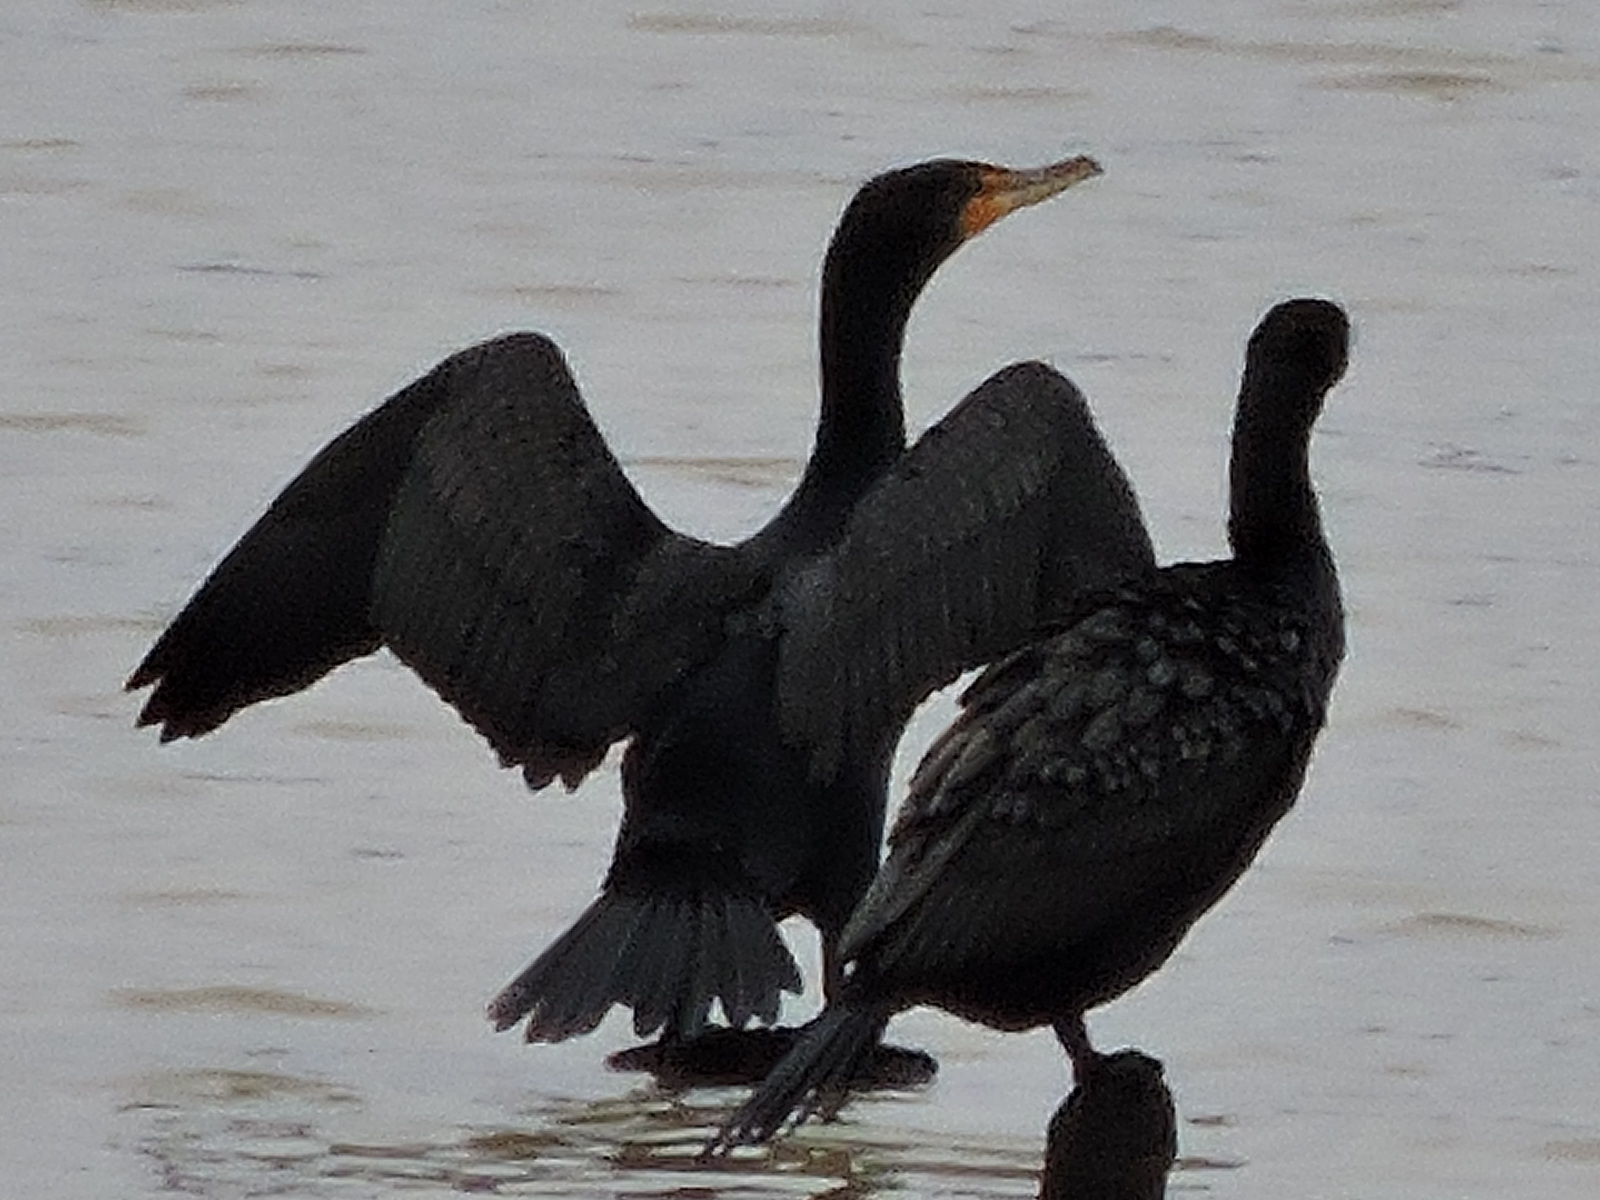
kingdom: Animalia
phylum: Chordata
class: Aves
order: Suliformes
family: Phalacrocoracidae
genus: Phalacrocorax
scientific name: Phalacrocorax auritus
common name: Double-crested cormorant
